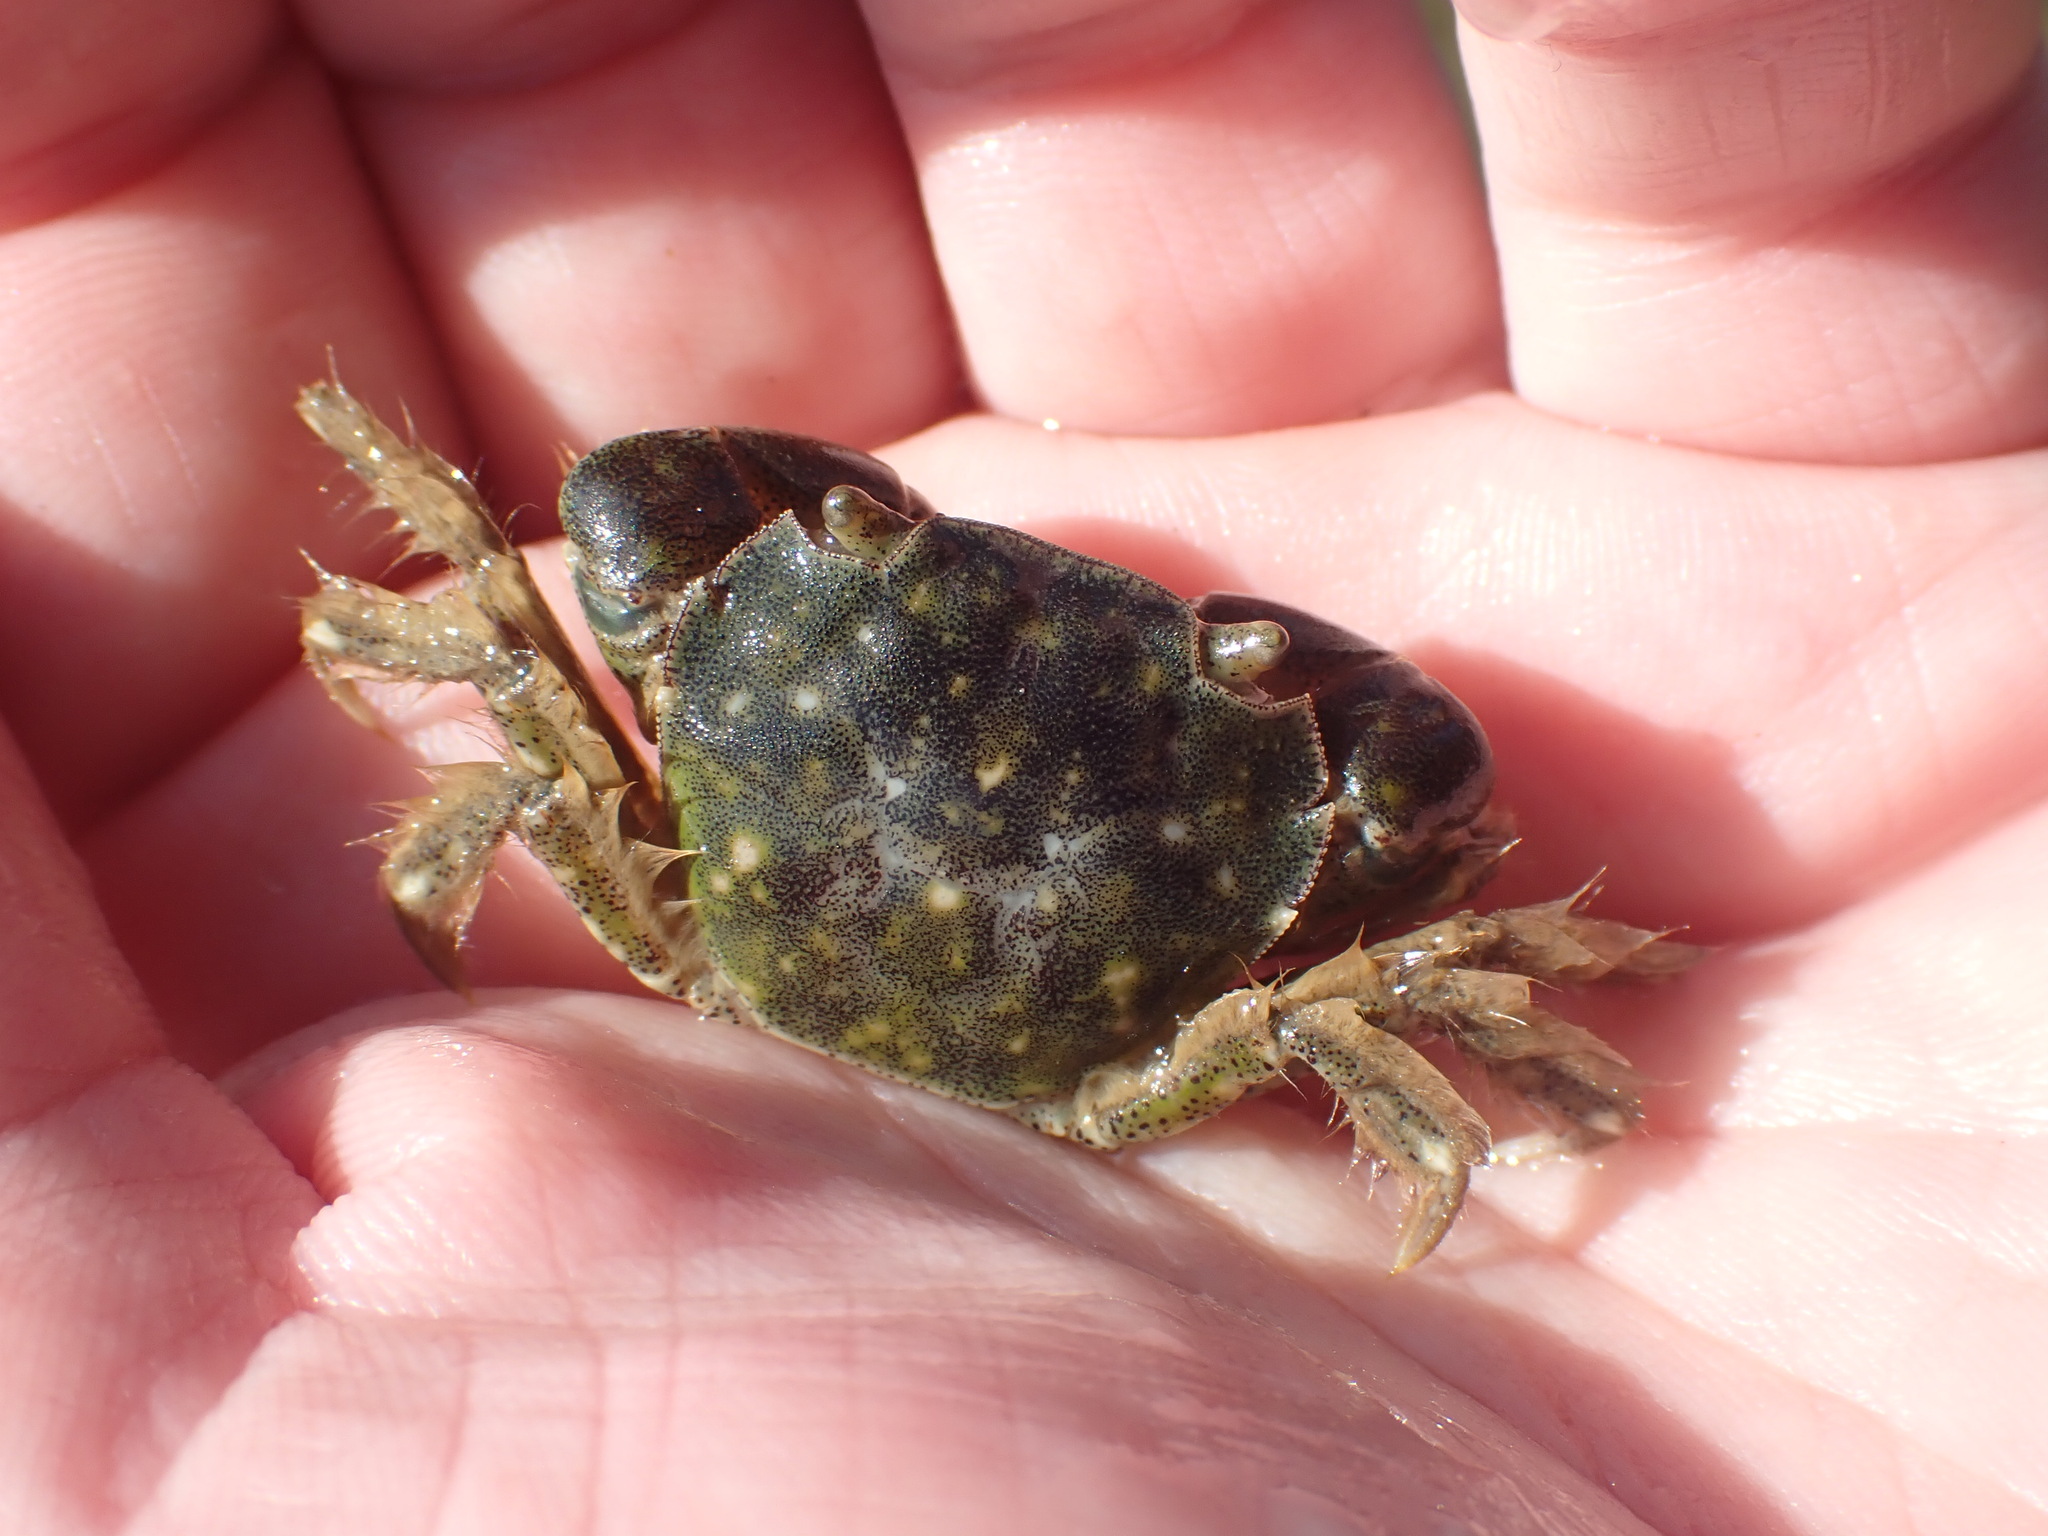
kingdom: Animalia
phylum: Arthropoda
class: Malacostraca
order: Decapoda
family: Varunidae
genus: Hemigrapsus
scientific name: Hemigrapsus crenulatus
